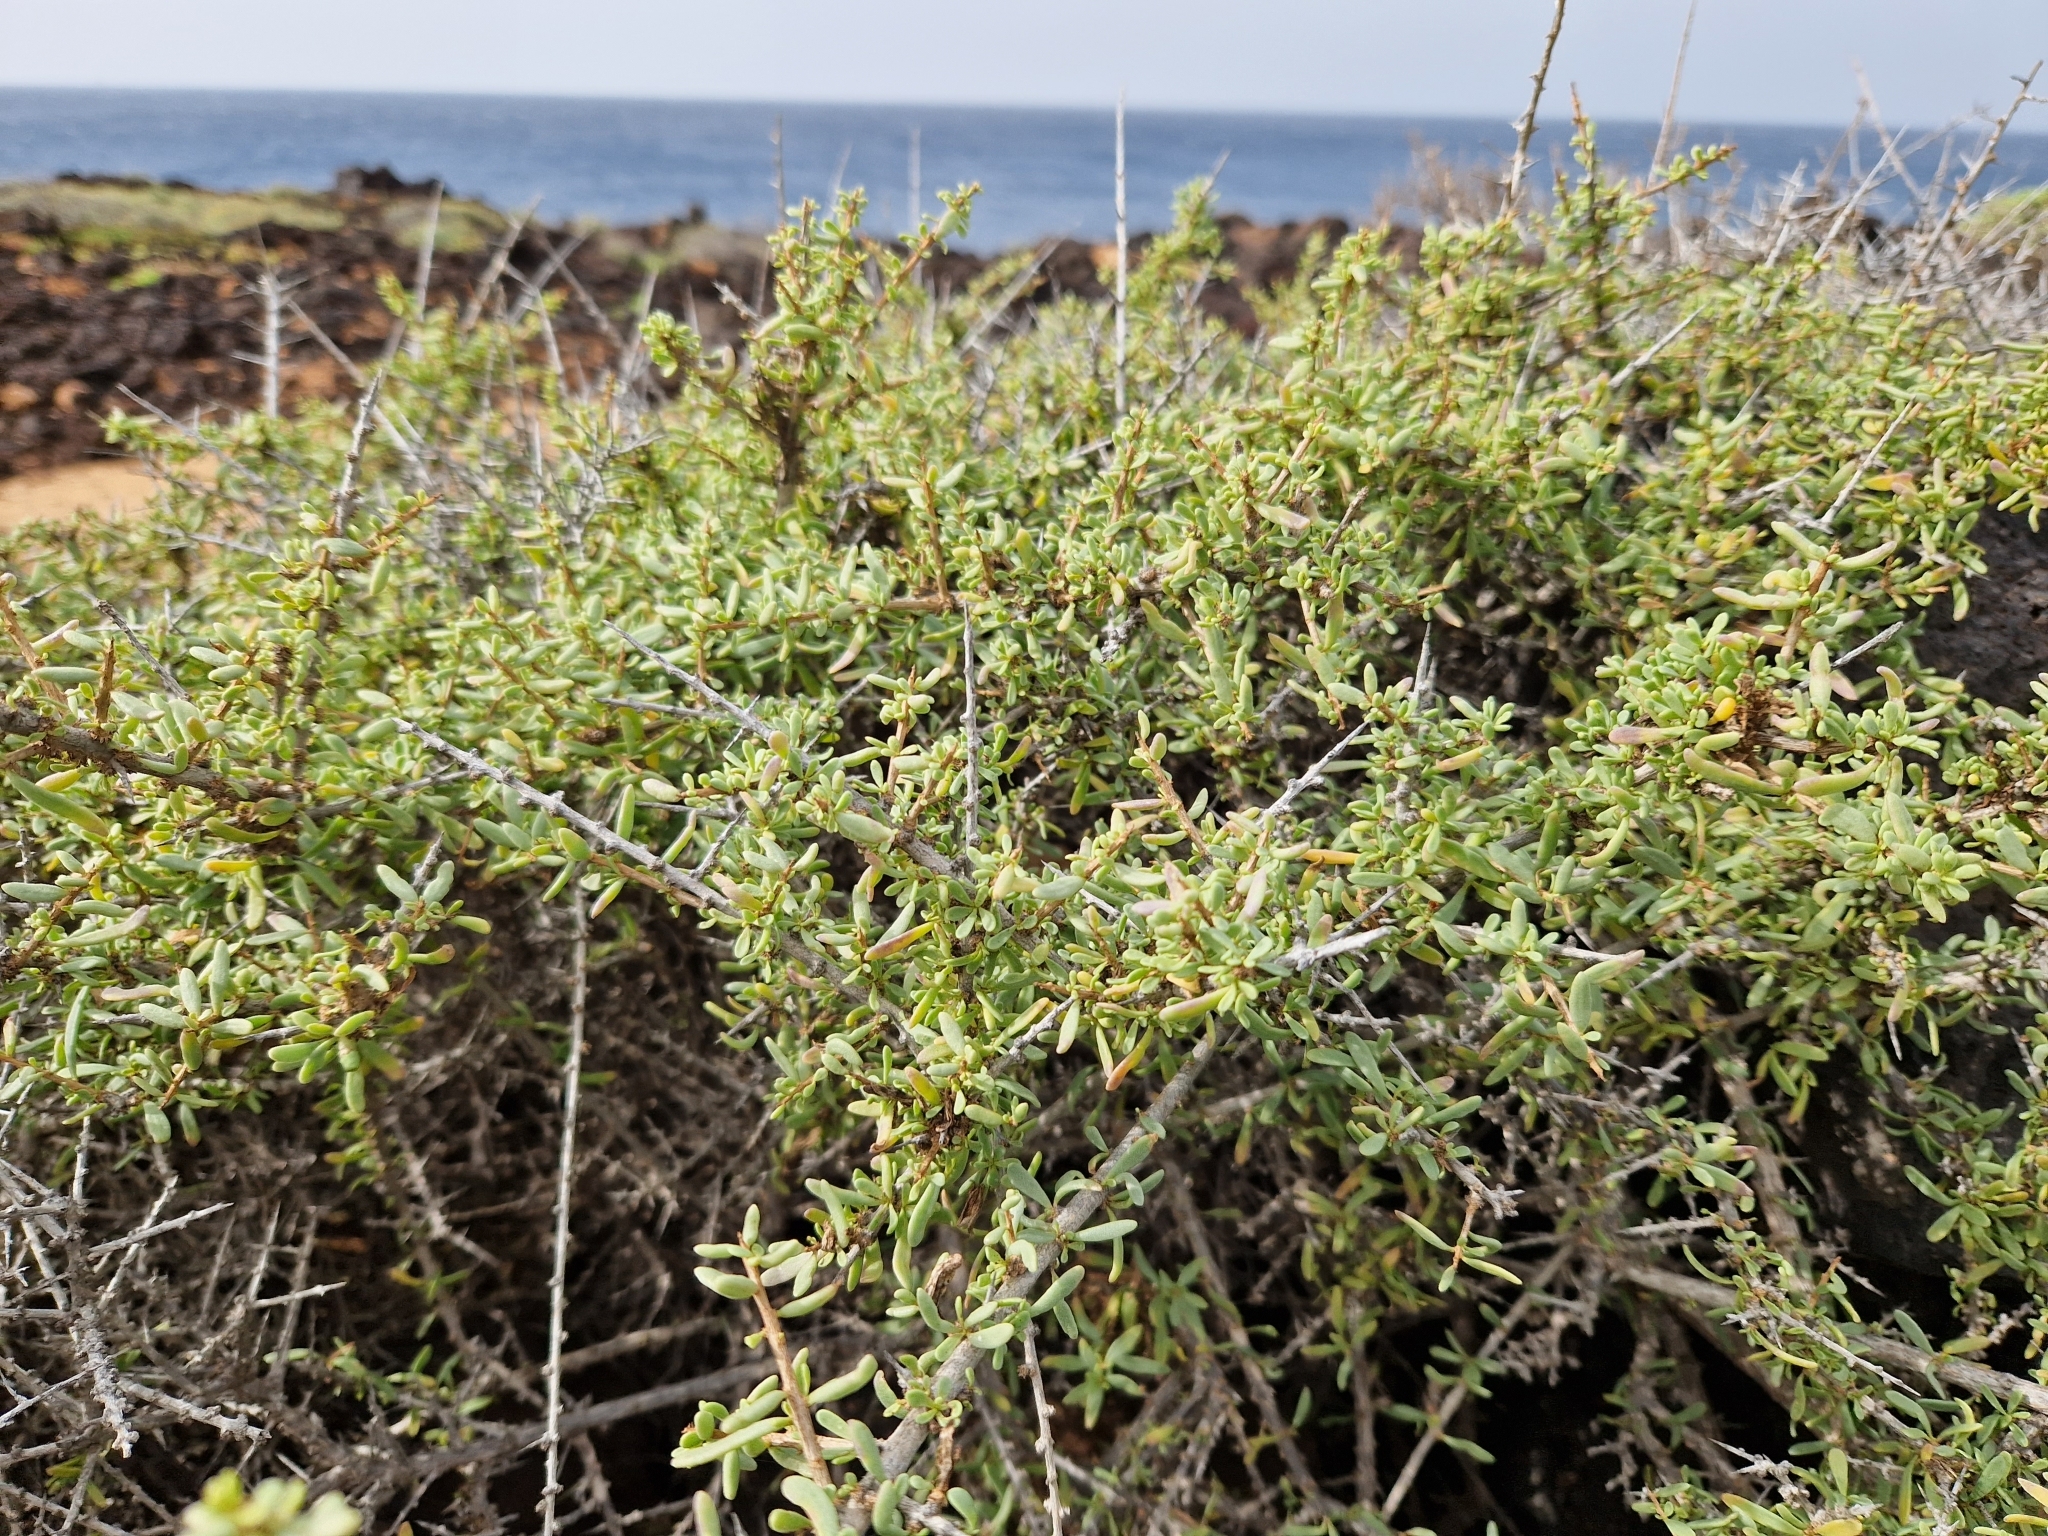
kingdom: Plantae
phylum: Tracheophyta
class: Magnoliopsida
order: Solanales
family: Solanaceae
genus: Lycium
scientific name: Lycium intricatum
